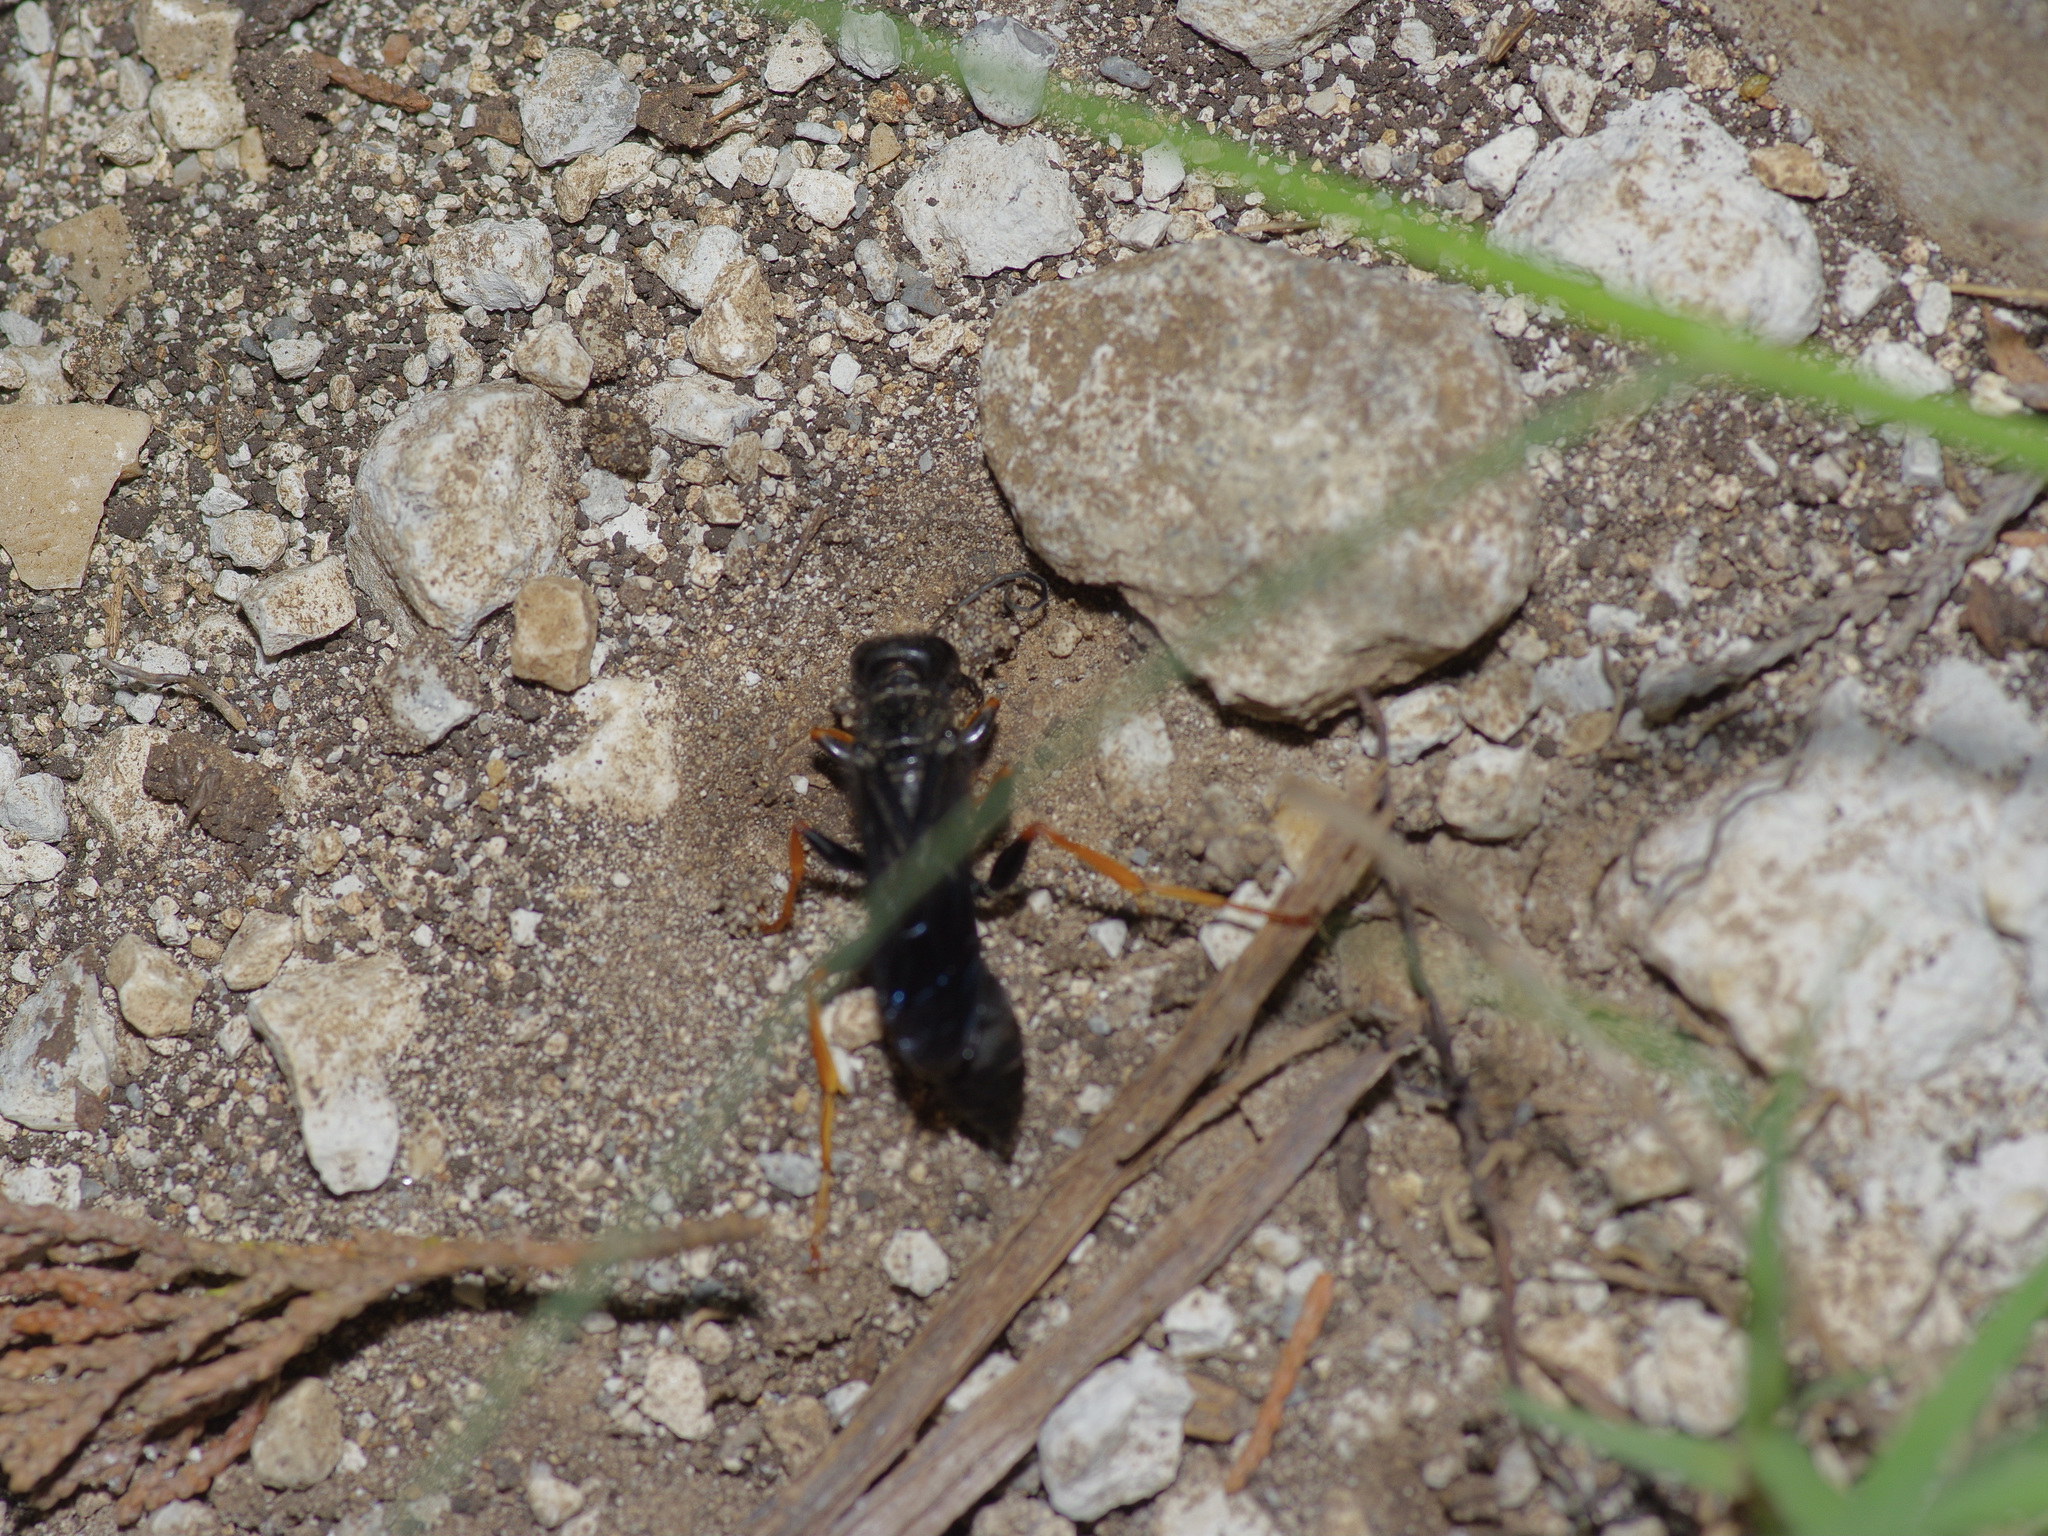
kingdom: Animalia
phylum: Arthropoda
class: Insecta
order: Hymenoptera
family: Sphecidae
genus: Podium
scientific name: Podium luctuosum
